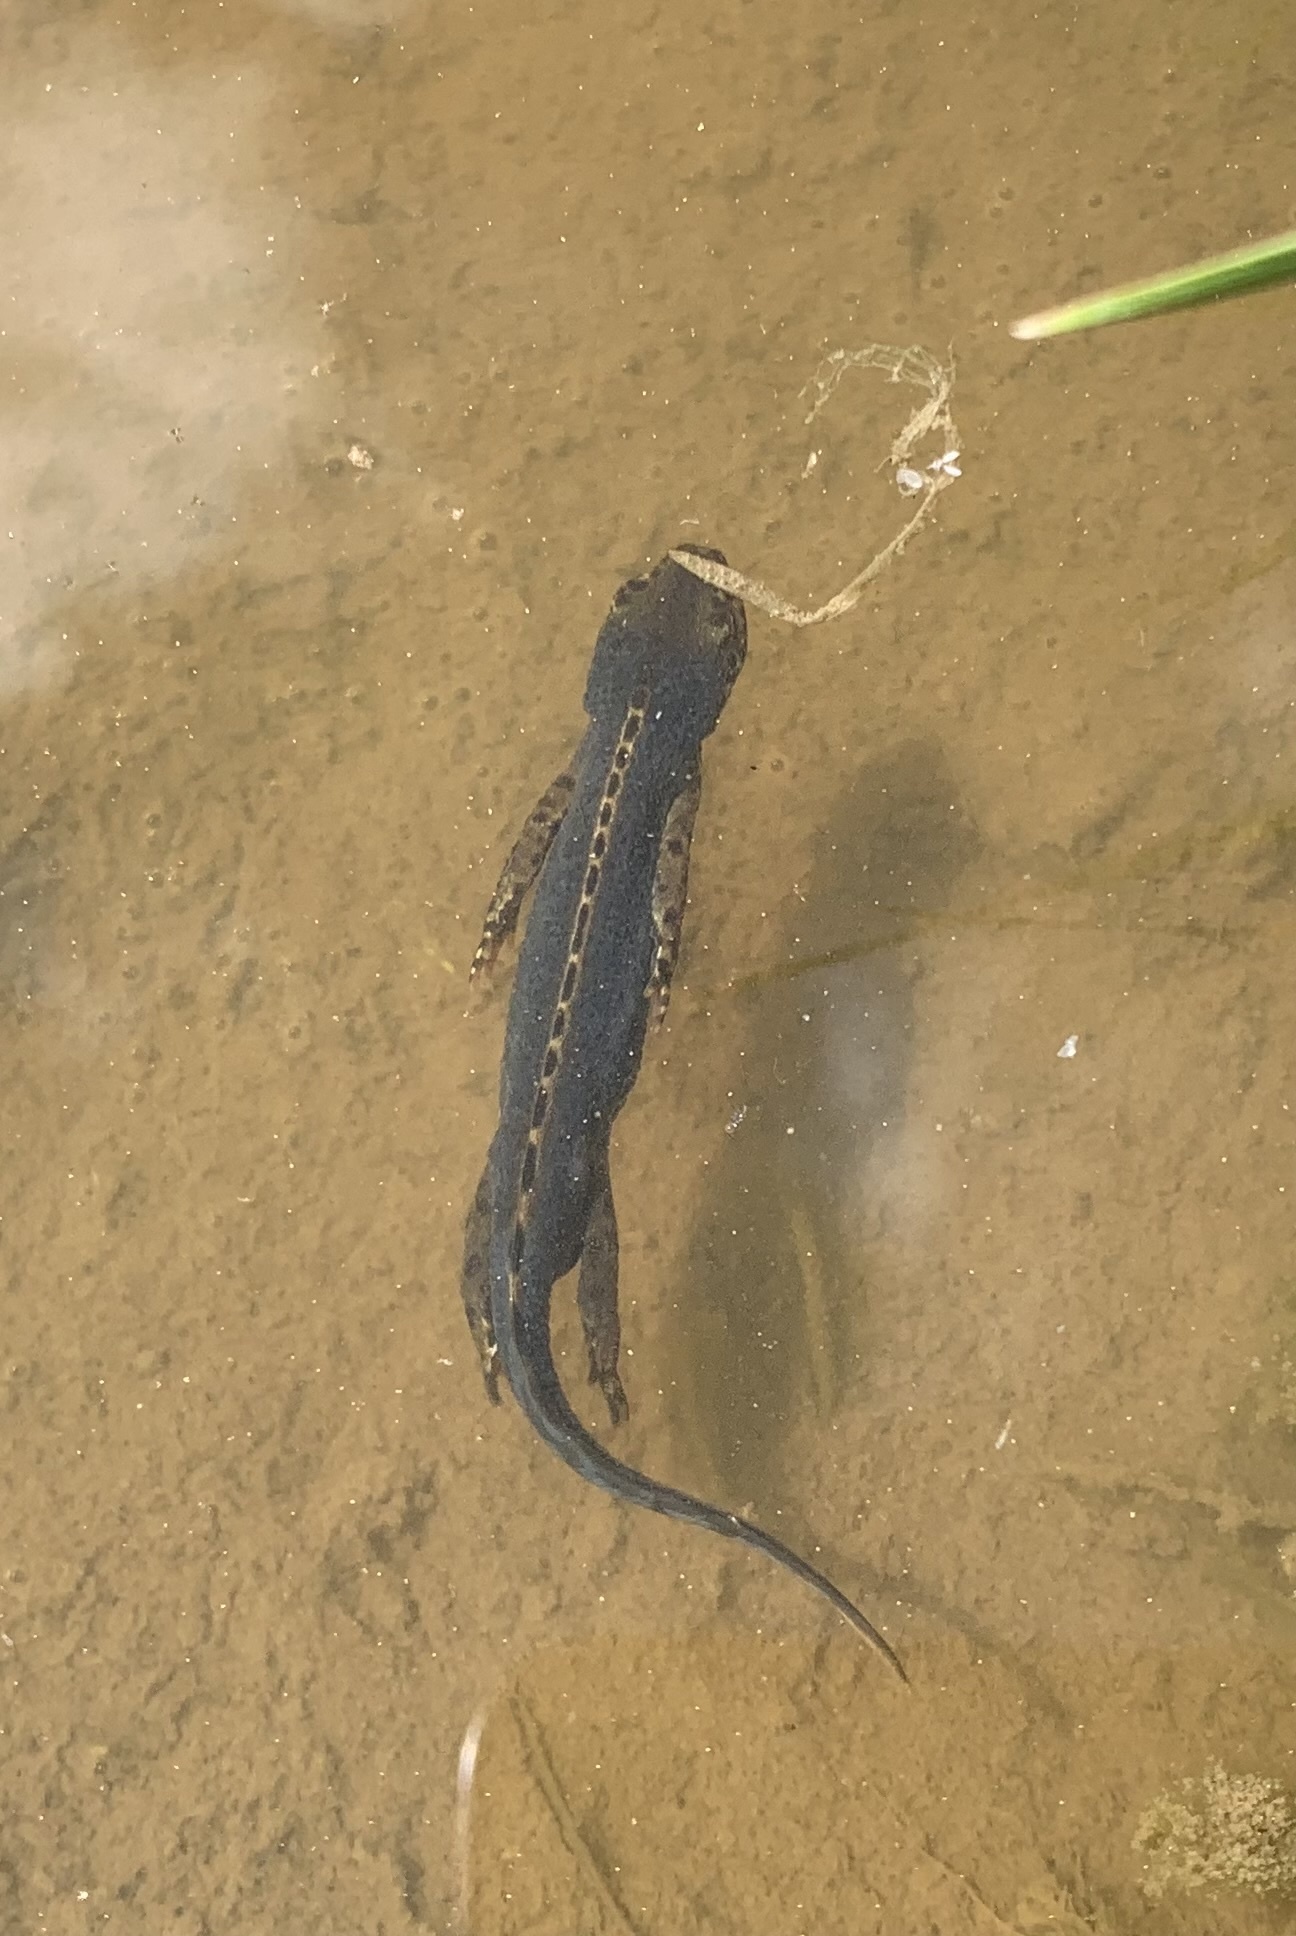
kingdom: Animalia
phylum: Chordata
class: Amphibia
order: Caudata
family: Salamandridae
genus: Ichthyosaura
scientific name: Ichthyosaura alpestris
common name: Alpine newt
